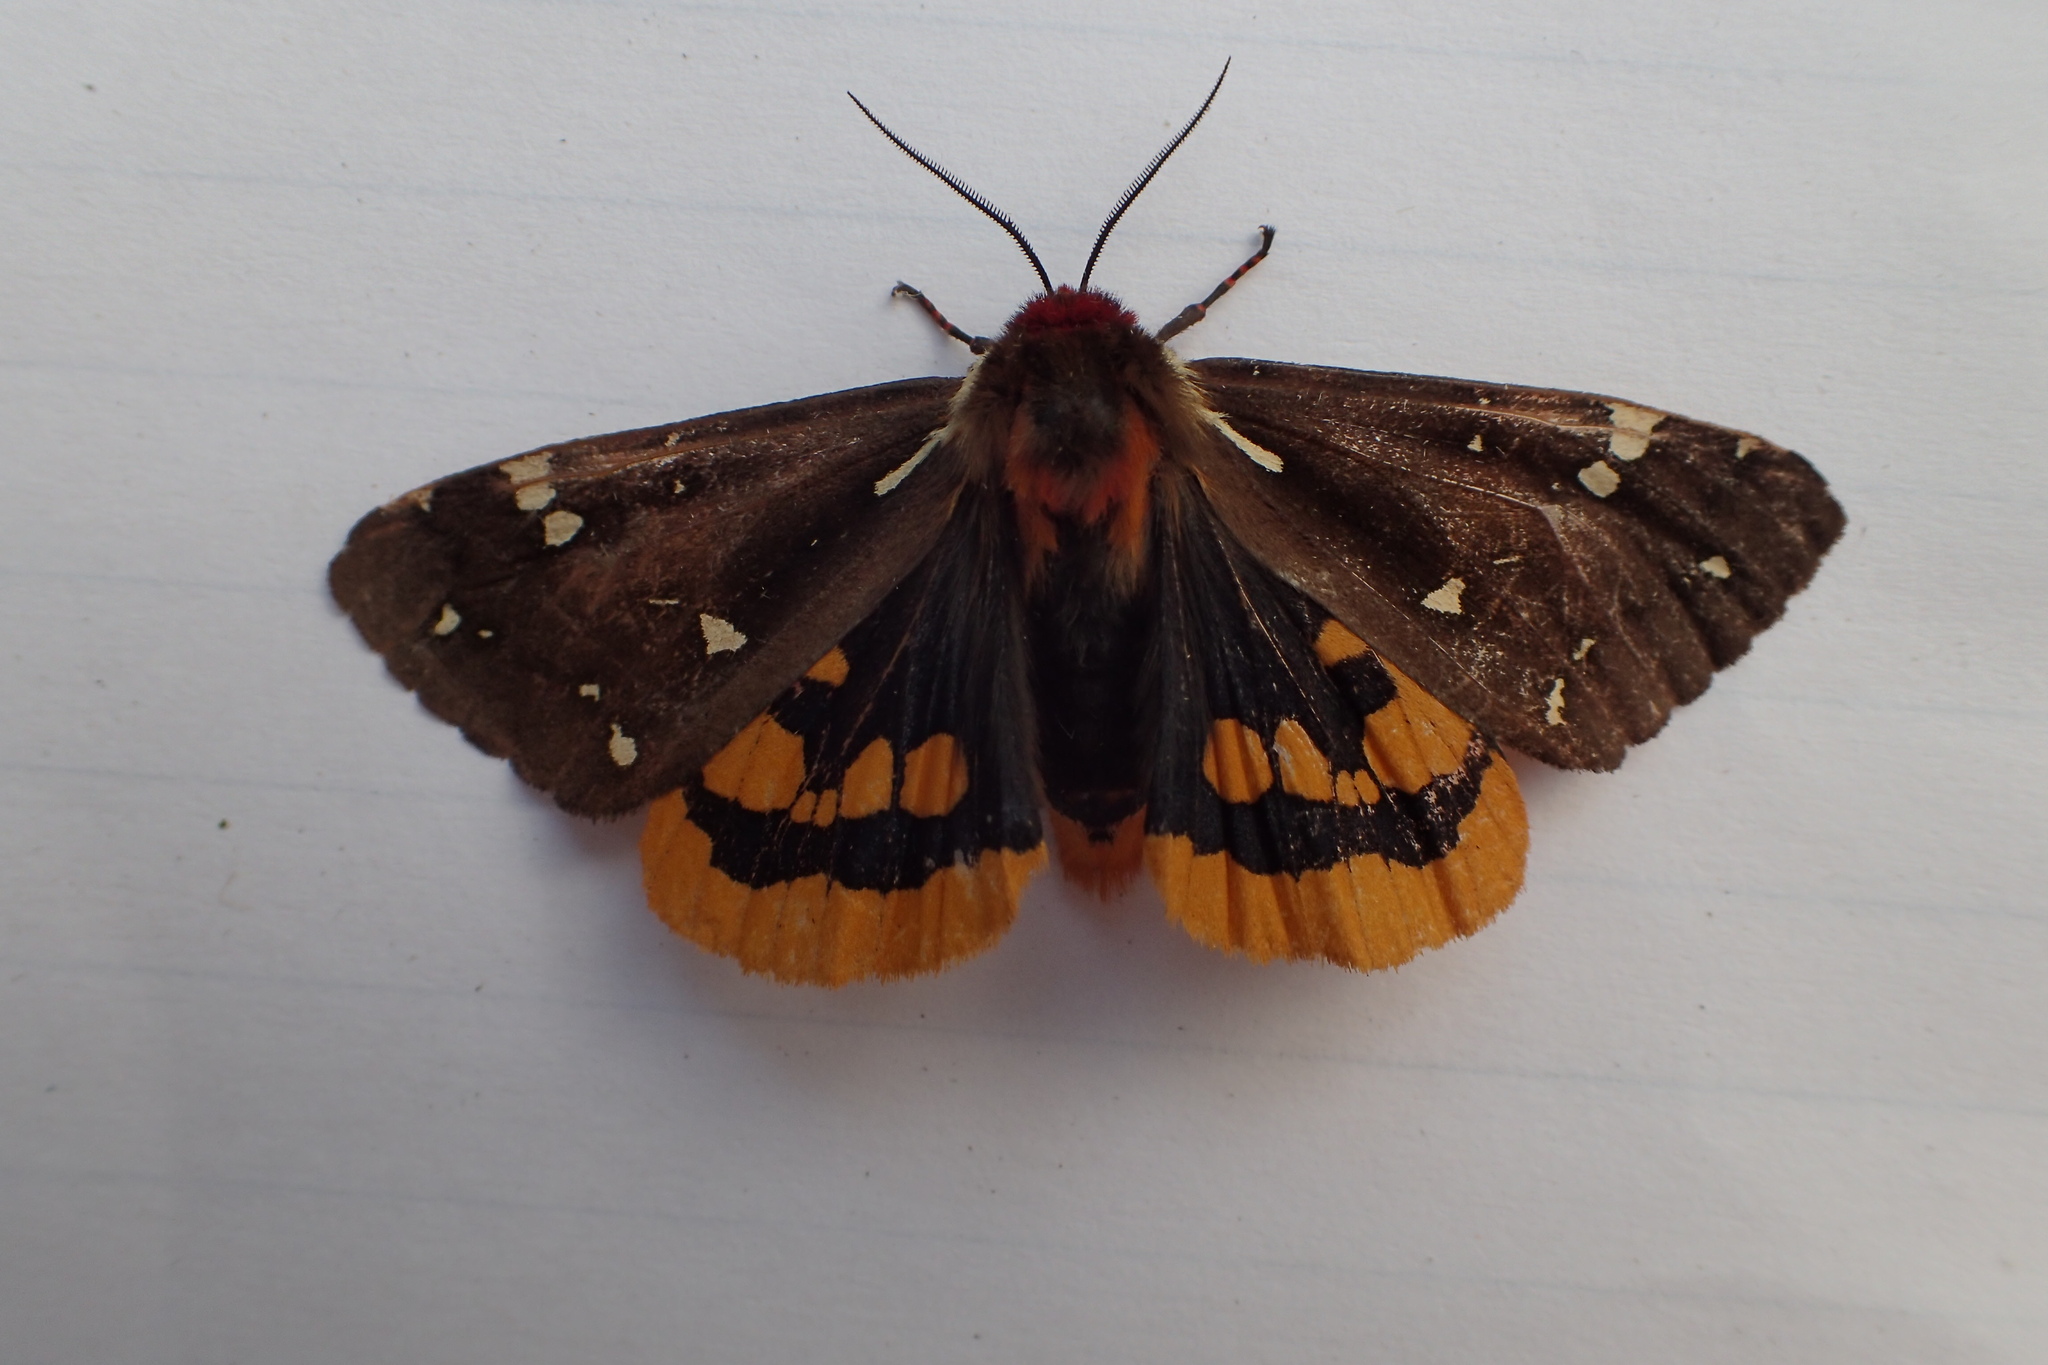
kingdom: Animalia
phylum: Arthropoda
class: Insecta
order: Lepidoptera
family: Erebidae
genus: Arctia
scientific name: Arctia parthenos
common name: St. lawrence tiger moth
